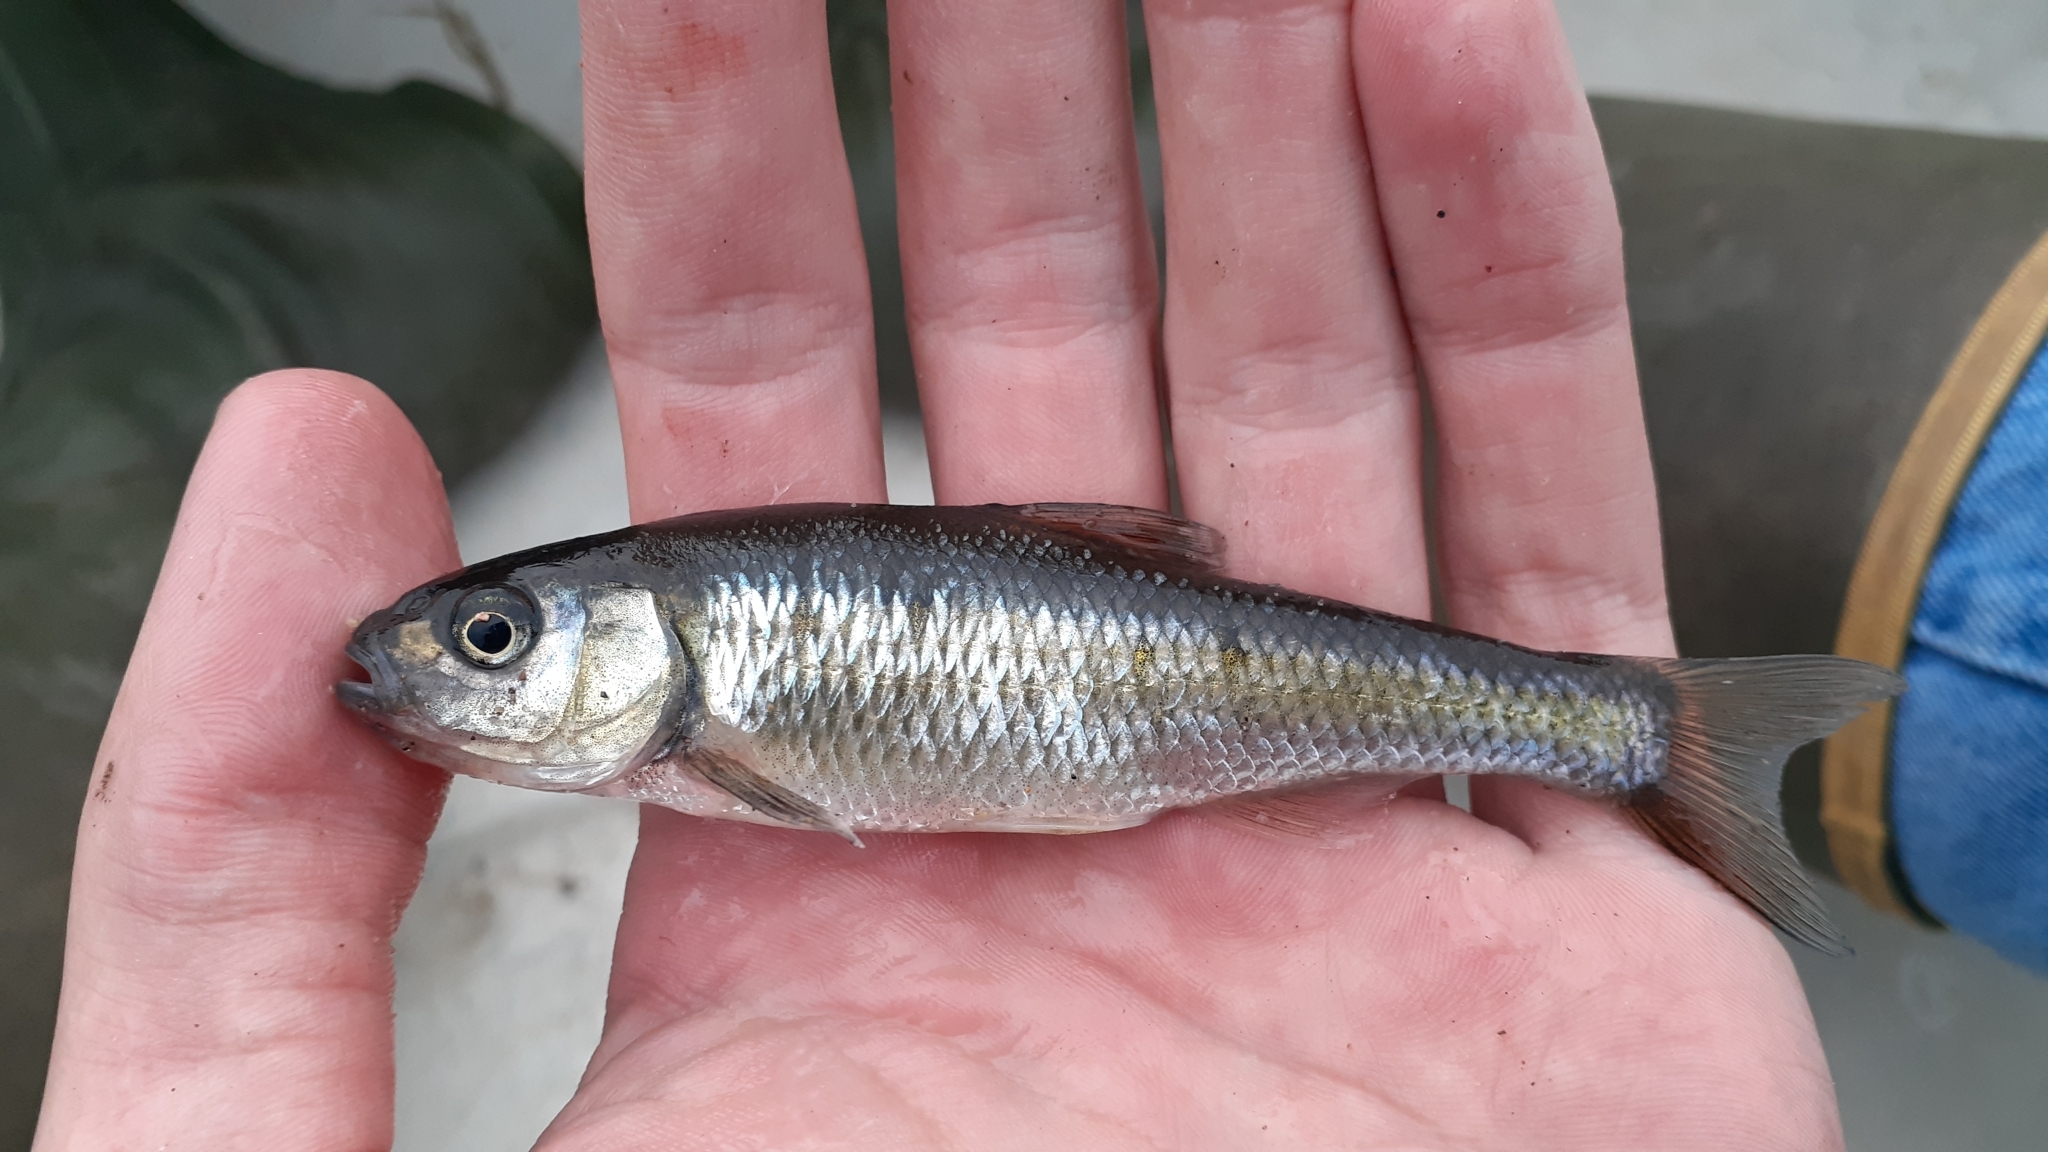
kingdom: Animalia
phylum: Chordata
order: Cypriniformes
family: Cyprinidae
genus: Luxilus
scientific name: Luxilus cornutus
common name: Common shiner
